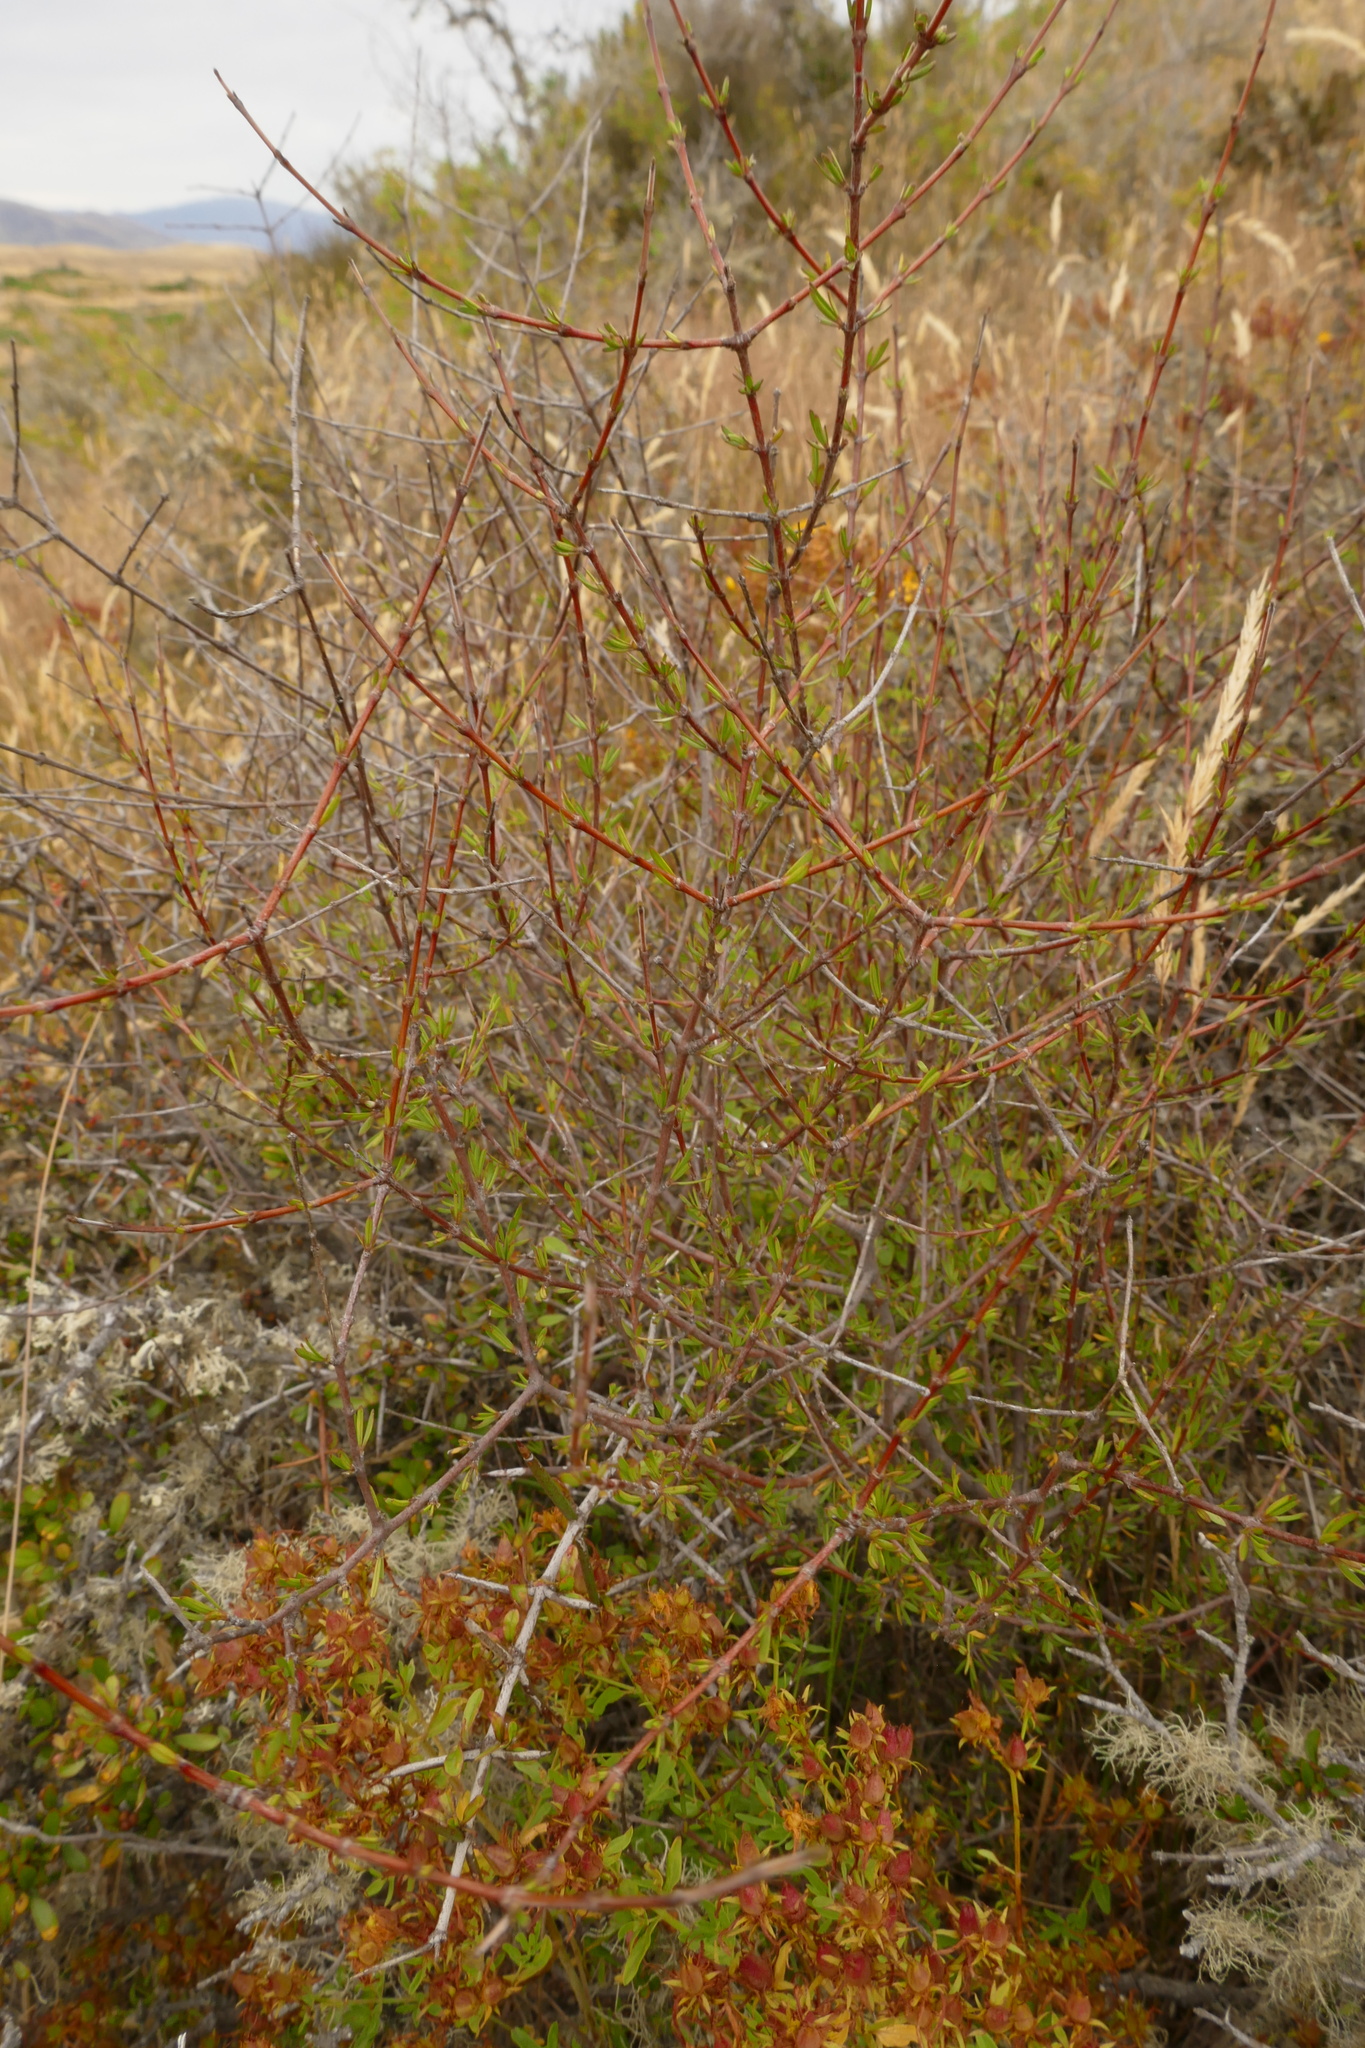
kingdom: Plantae
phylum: Tracheophyta
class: Magnoliopsida
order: Gentianales
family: Rubiaceae
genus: Coprosma
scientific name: Coprosma intertexta
